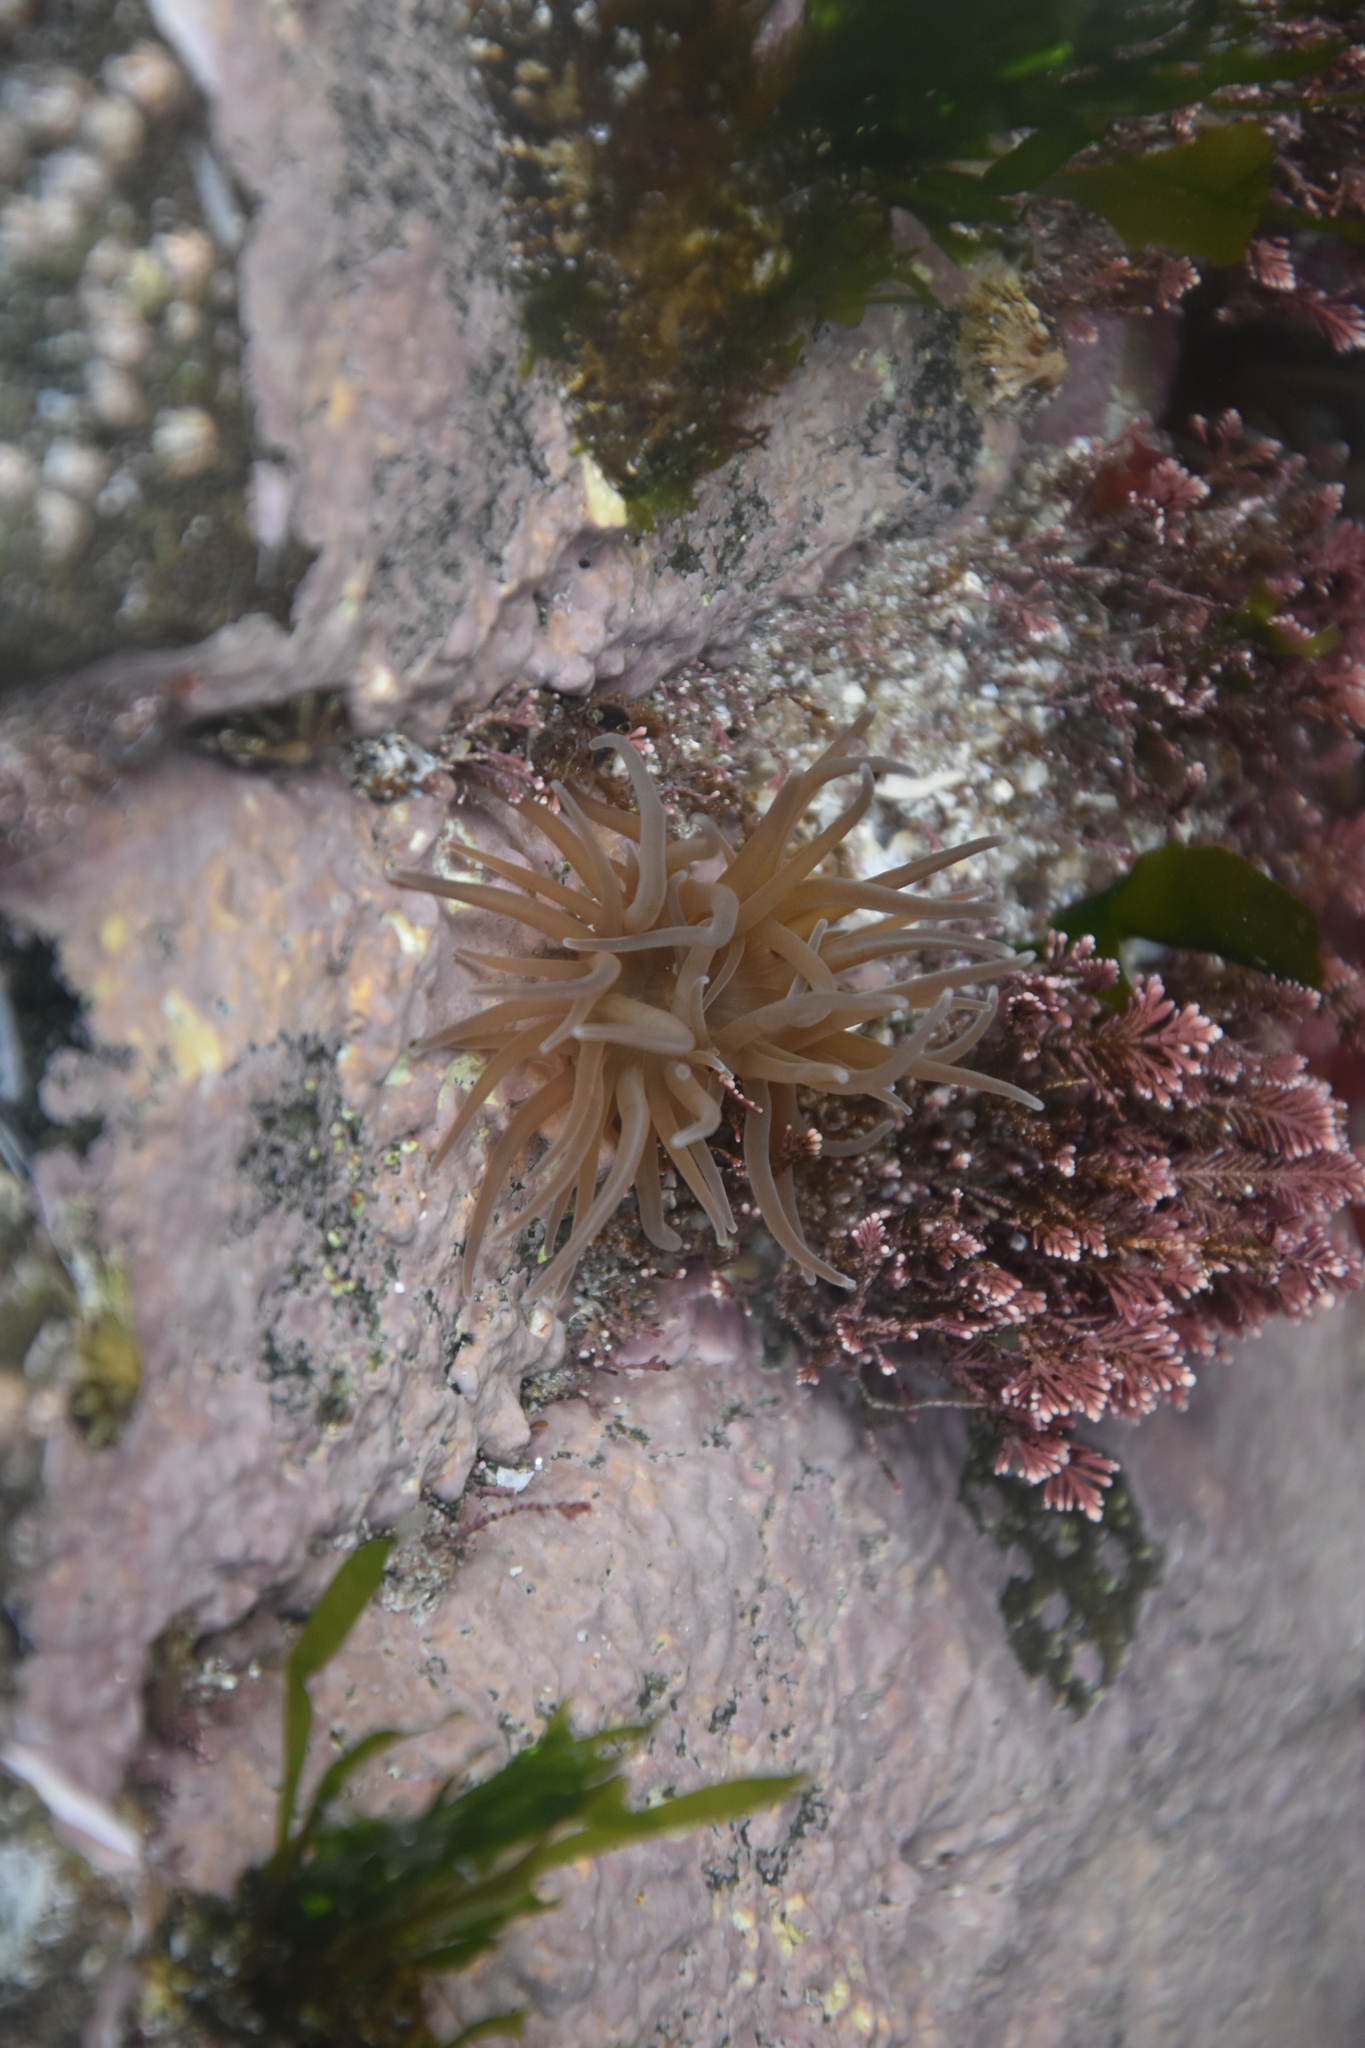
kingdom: Animalia
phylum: Cnidaria
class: Anthozoa
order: Actiniaria
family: Actiniidae
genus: Anemonia
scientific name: Anemonia viridis
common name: Snakelocks anemone
